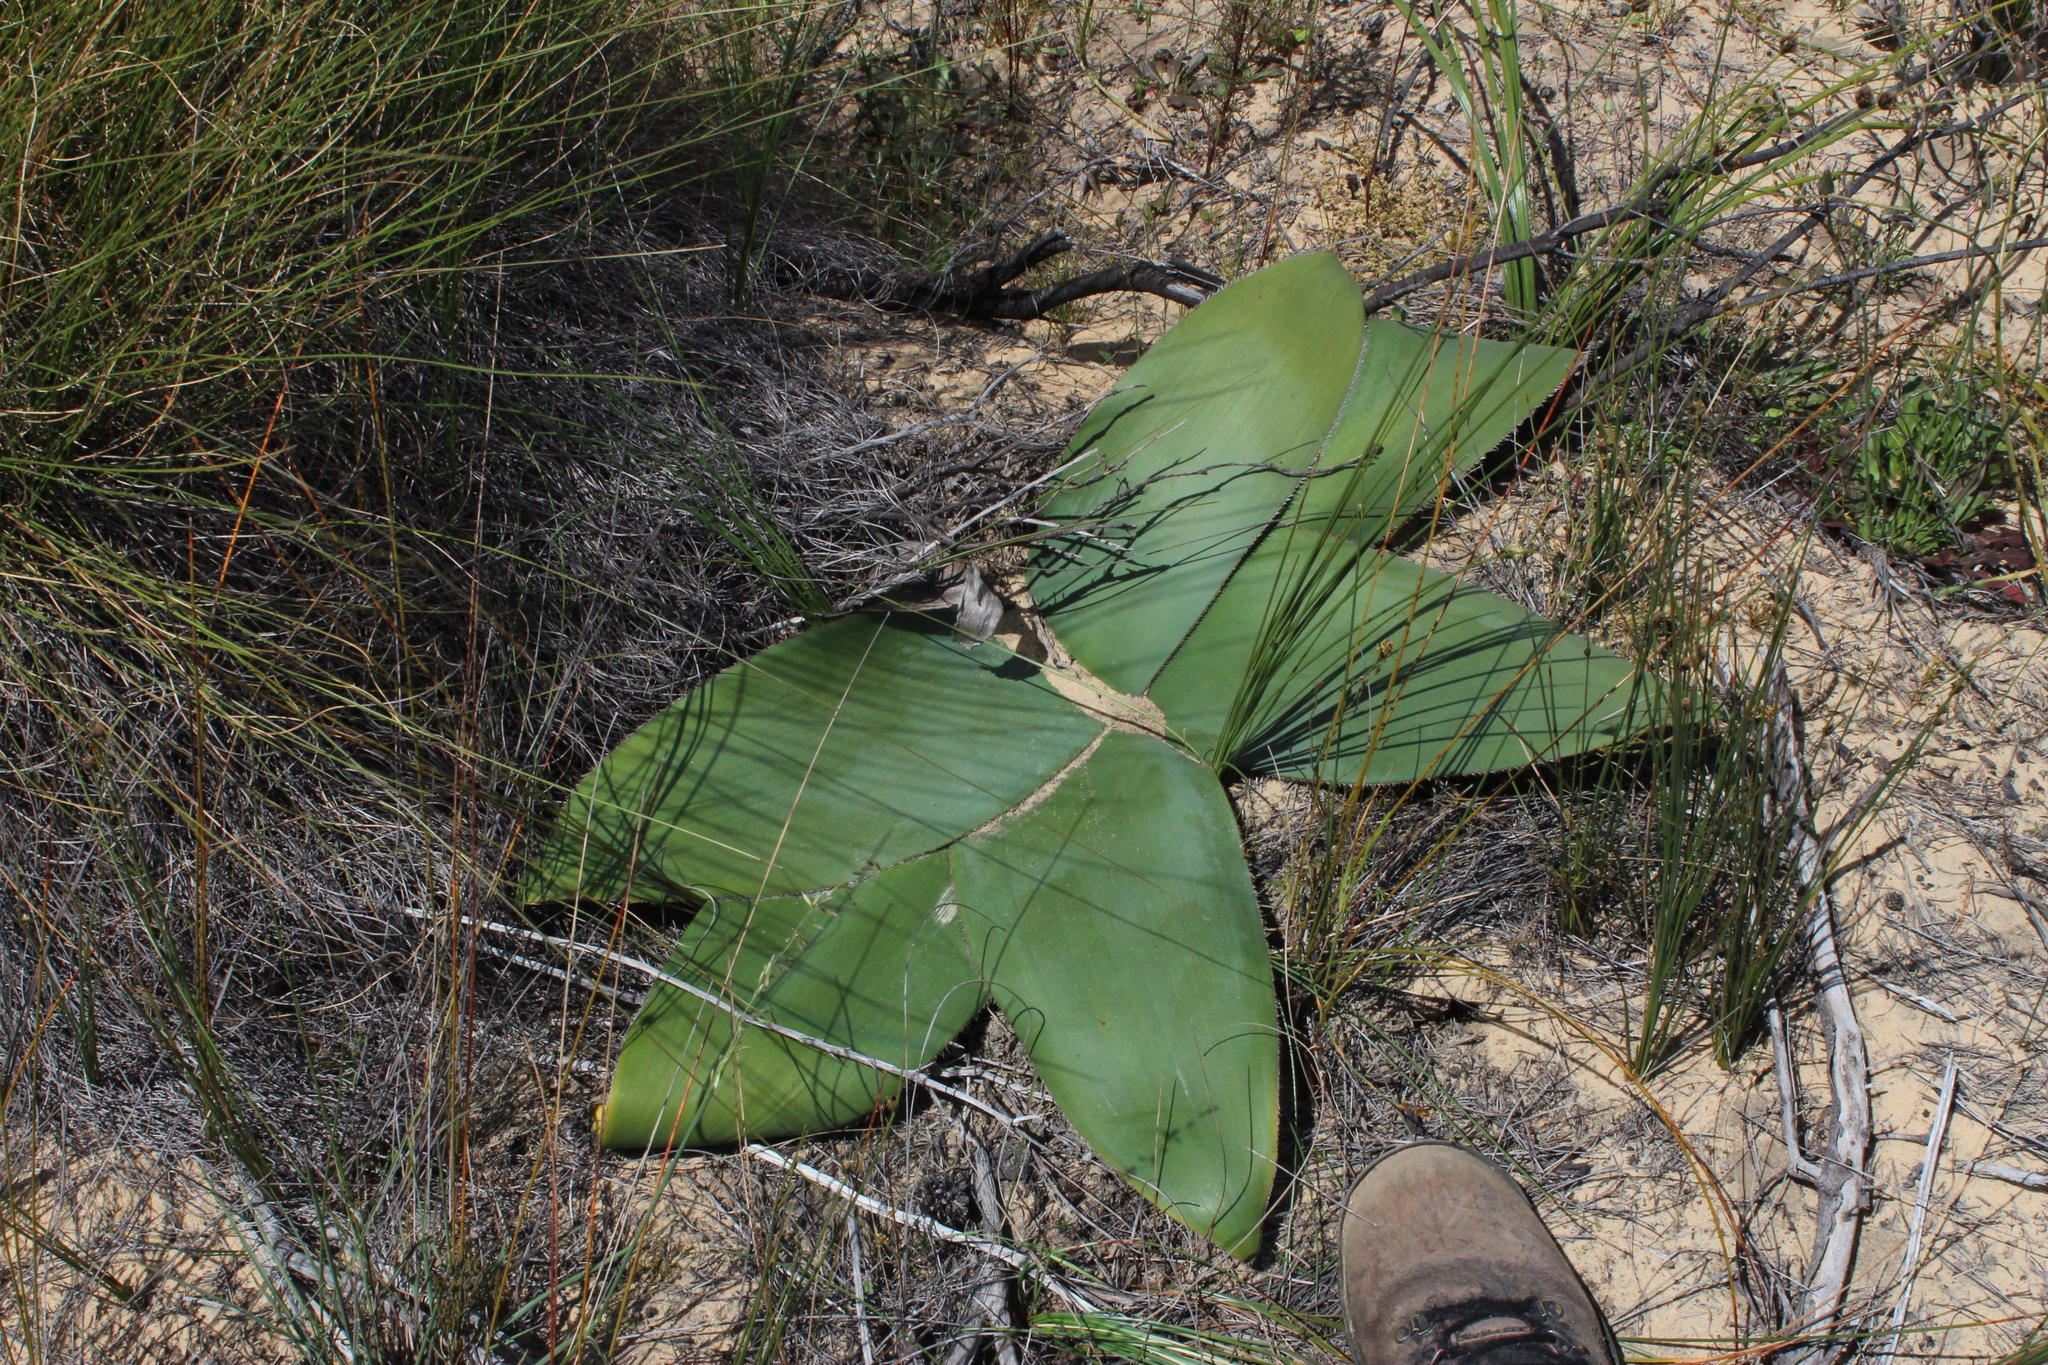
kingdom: Plantae
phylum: Tracheophyta
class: Liliopsida
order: Asparagales
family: Amaryllidaceae
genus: Brunsvigia
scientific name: Brunsvigia orientalis
